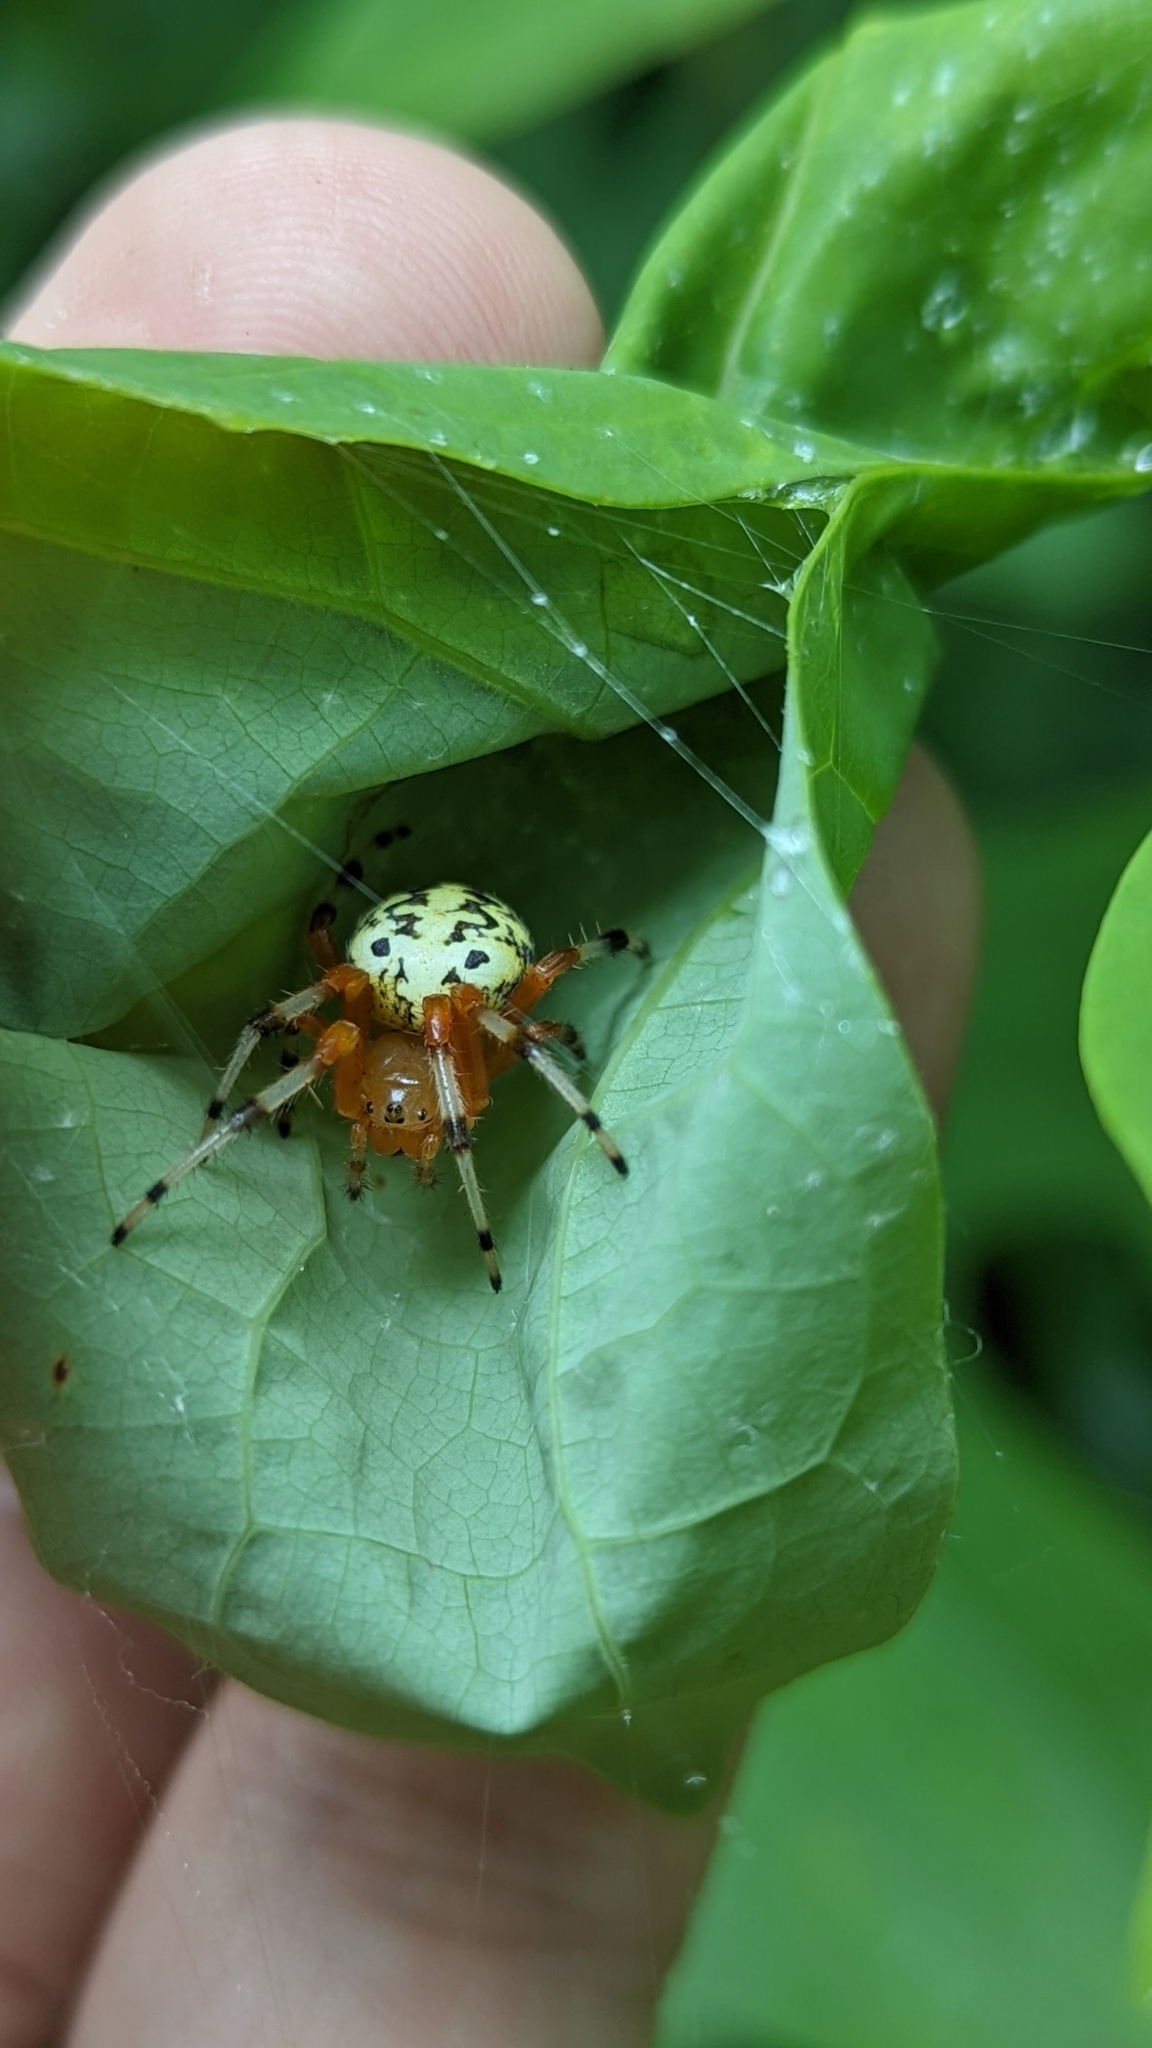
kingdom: Animalia
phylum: Arthropoda
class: Arachnida
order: Araneae
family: Araneidae
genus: Araneus
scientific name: Araneus marmoreus
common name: Marbled orbweaver
